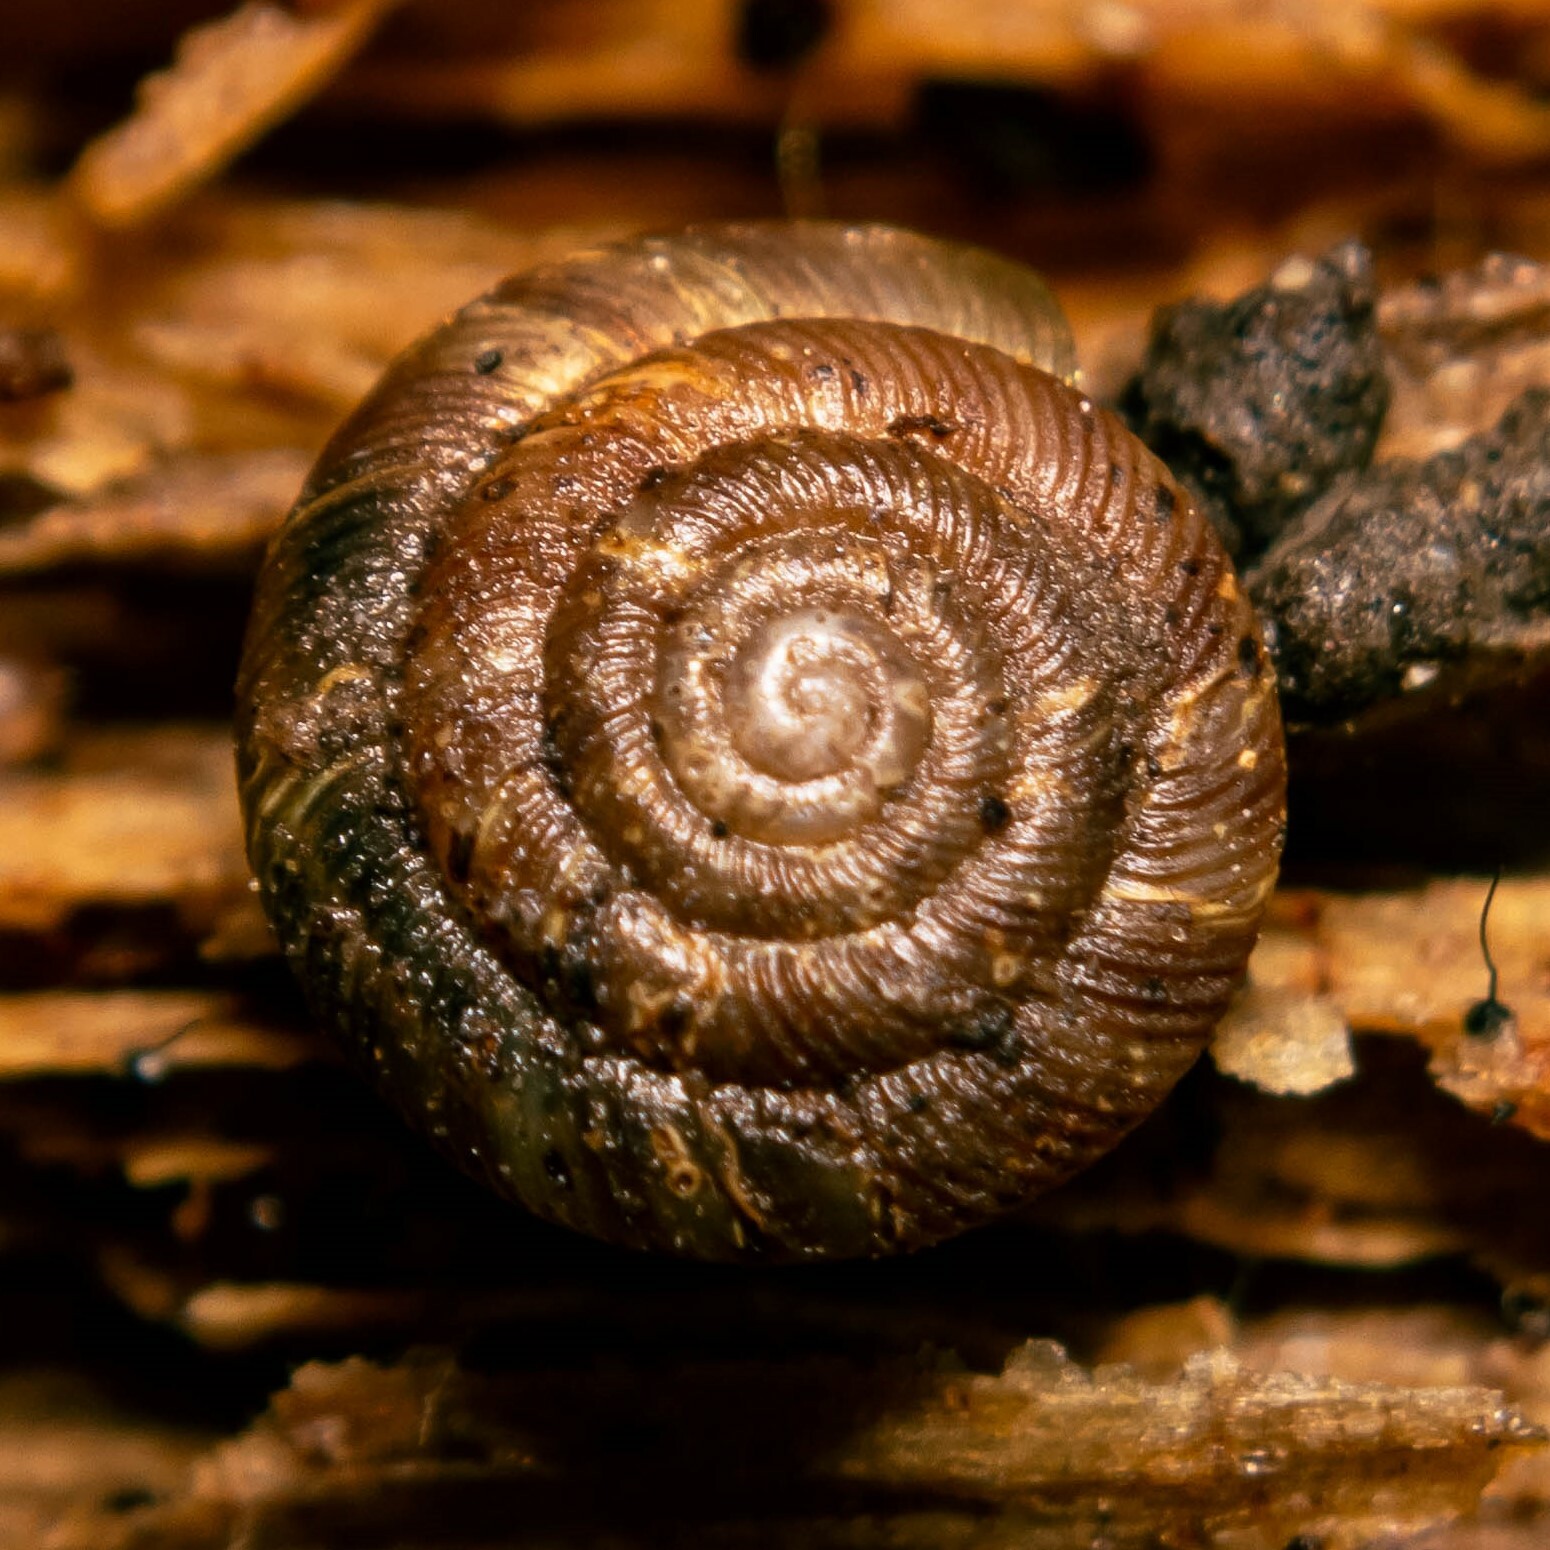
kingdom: Animalia
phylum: Mollusca
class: Gastropoda
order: Stylommatophora
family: Discidae
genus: Discus
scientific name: Discus rotundatus
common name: Rounded snail
